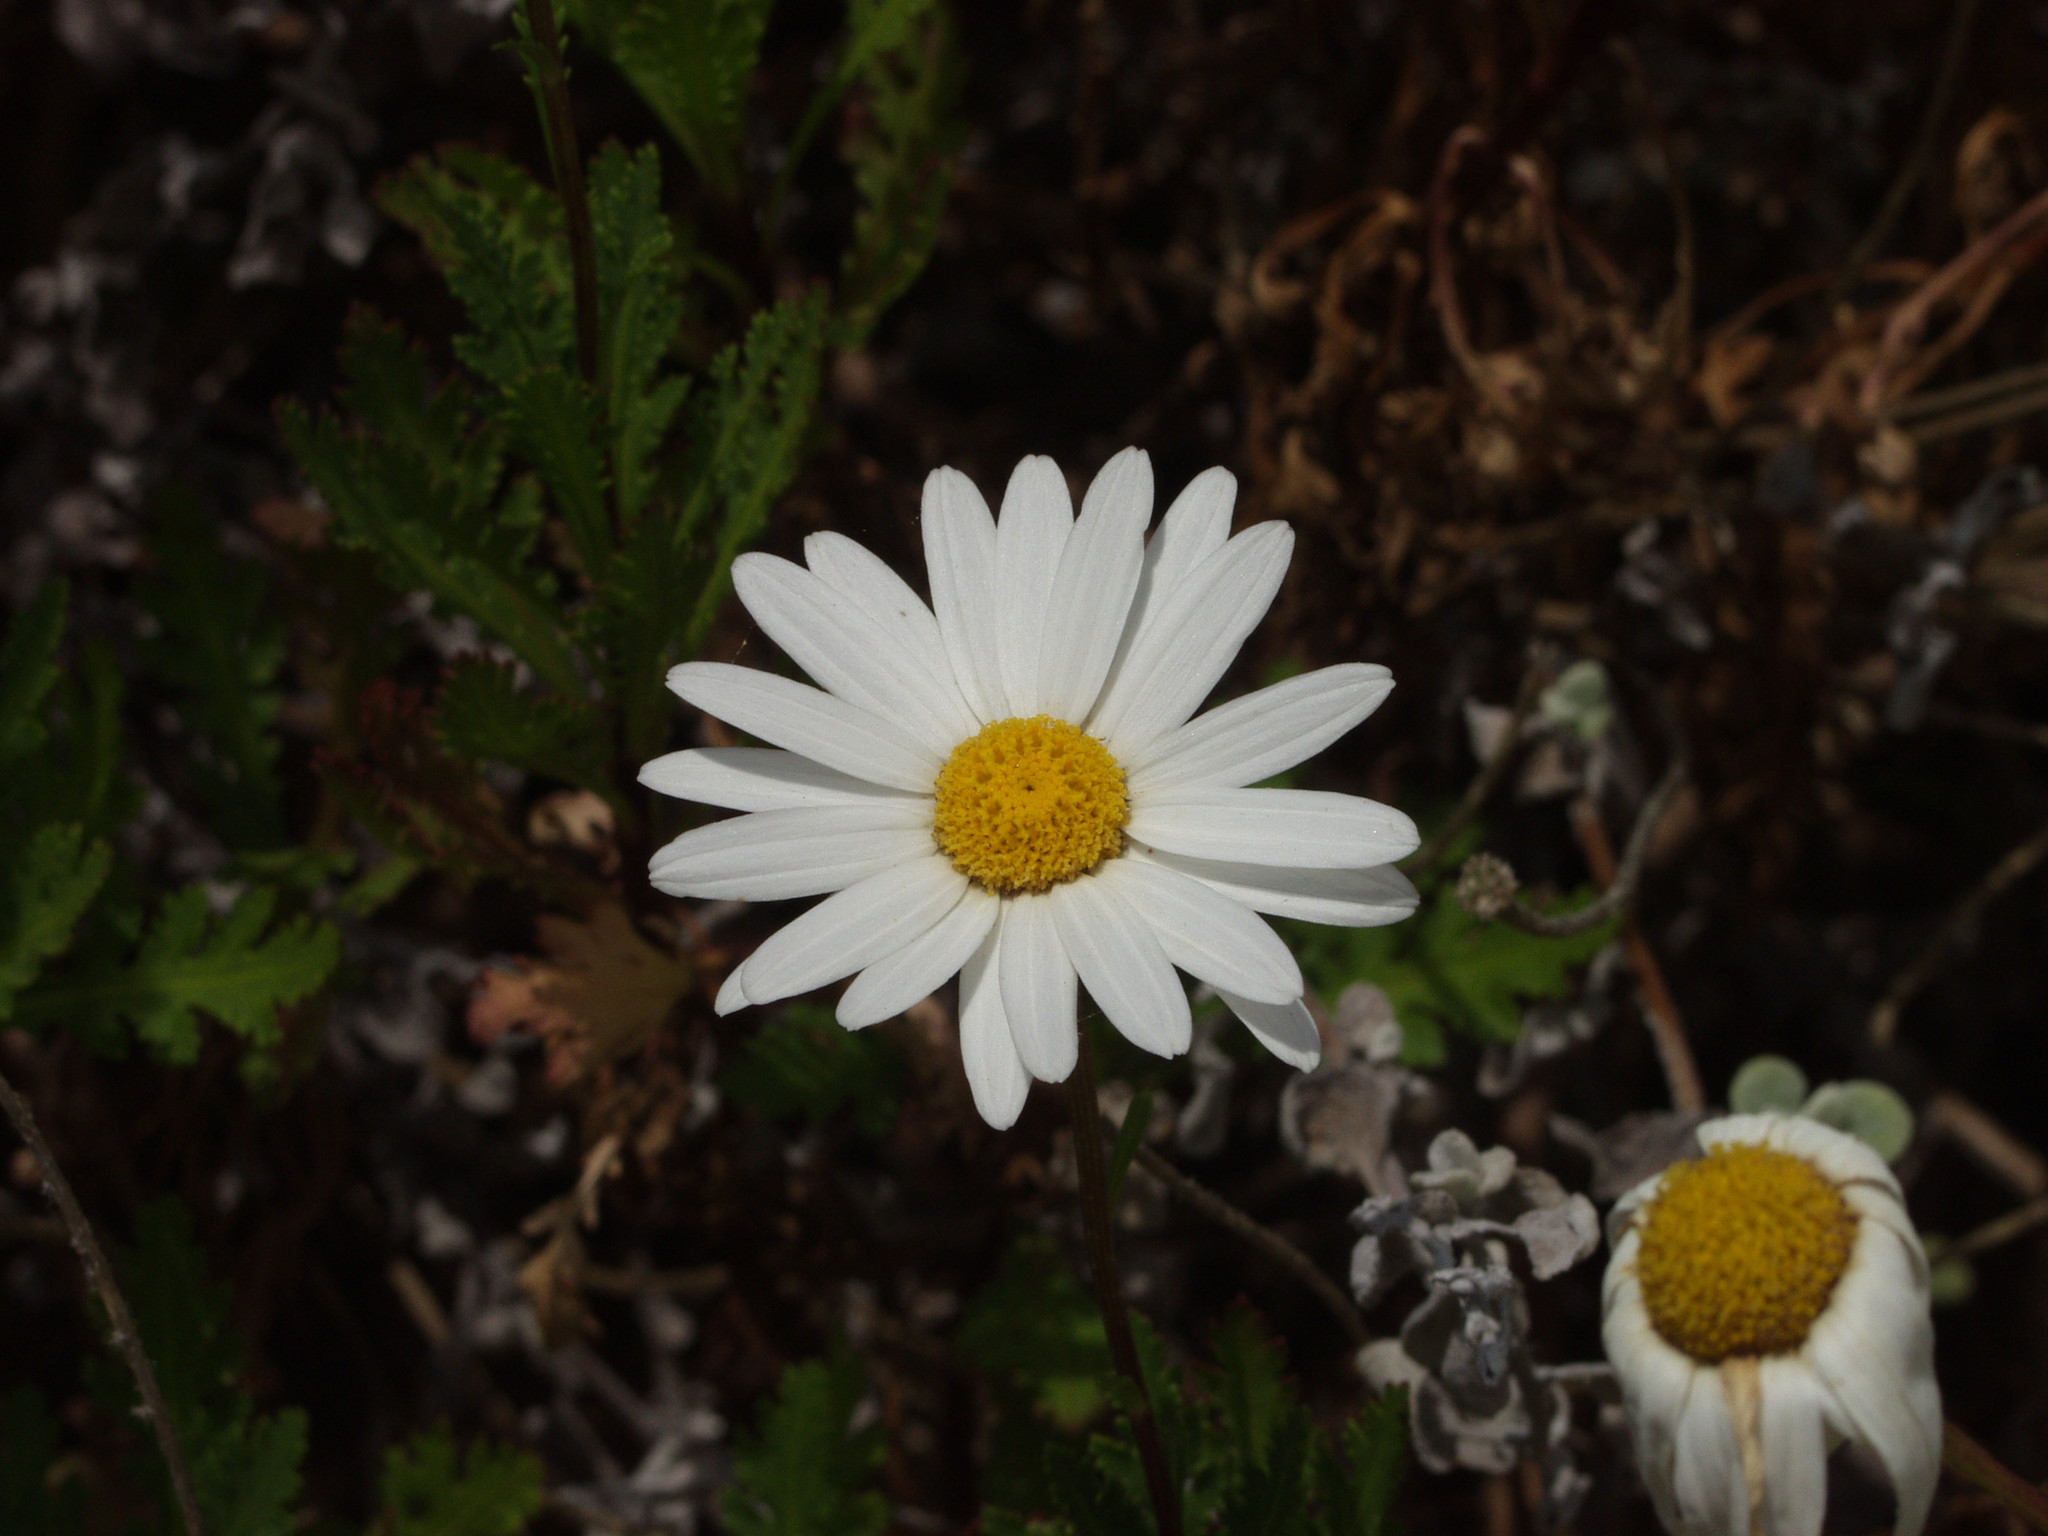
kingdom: Plantae
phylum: Tracheophyta
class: Magnoliopsida
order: Asterales
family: Asteraceae
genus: Argyranthemum
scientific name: Argyranthemum webbii
